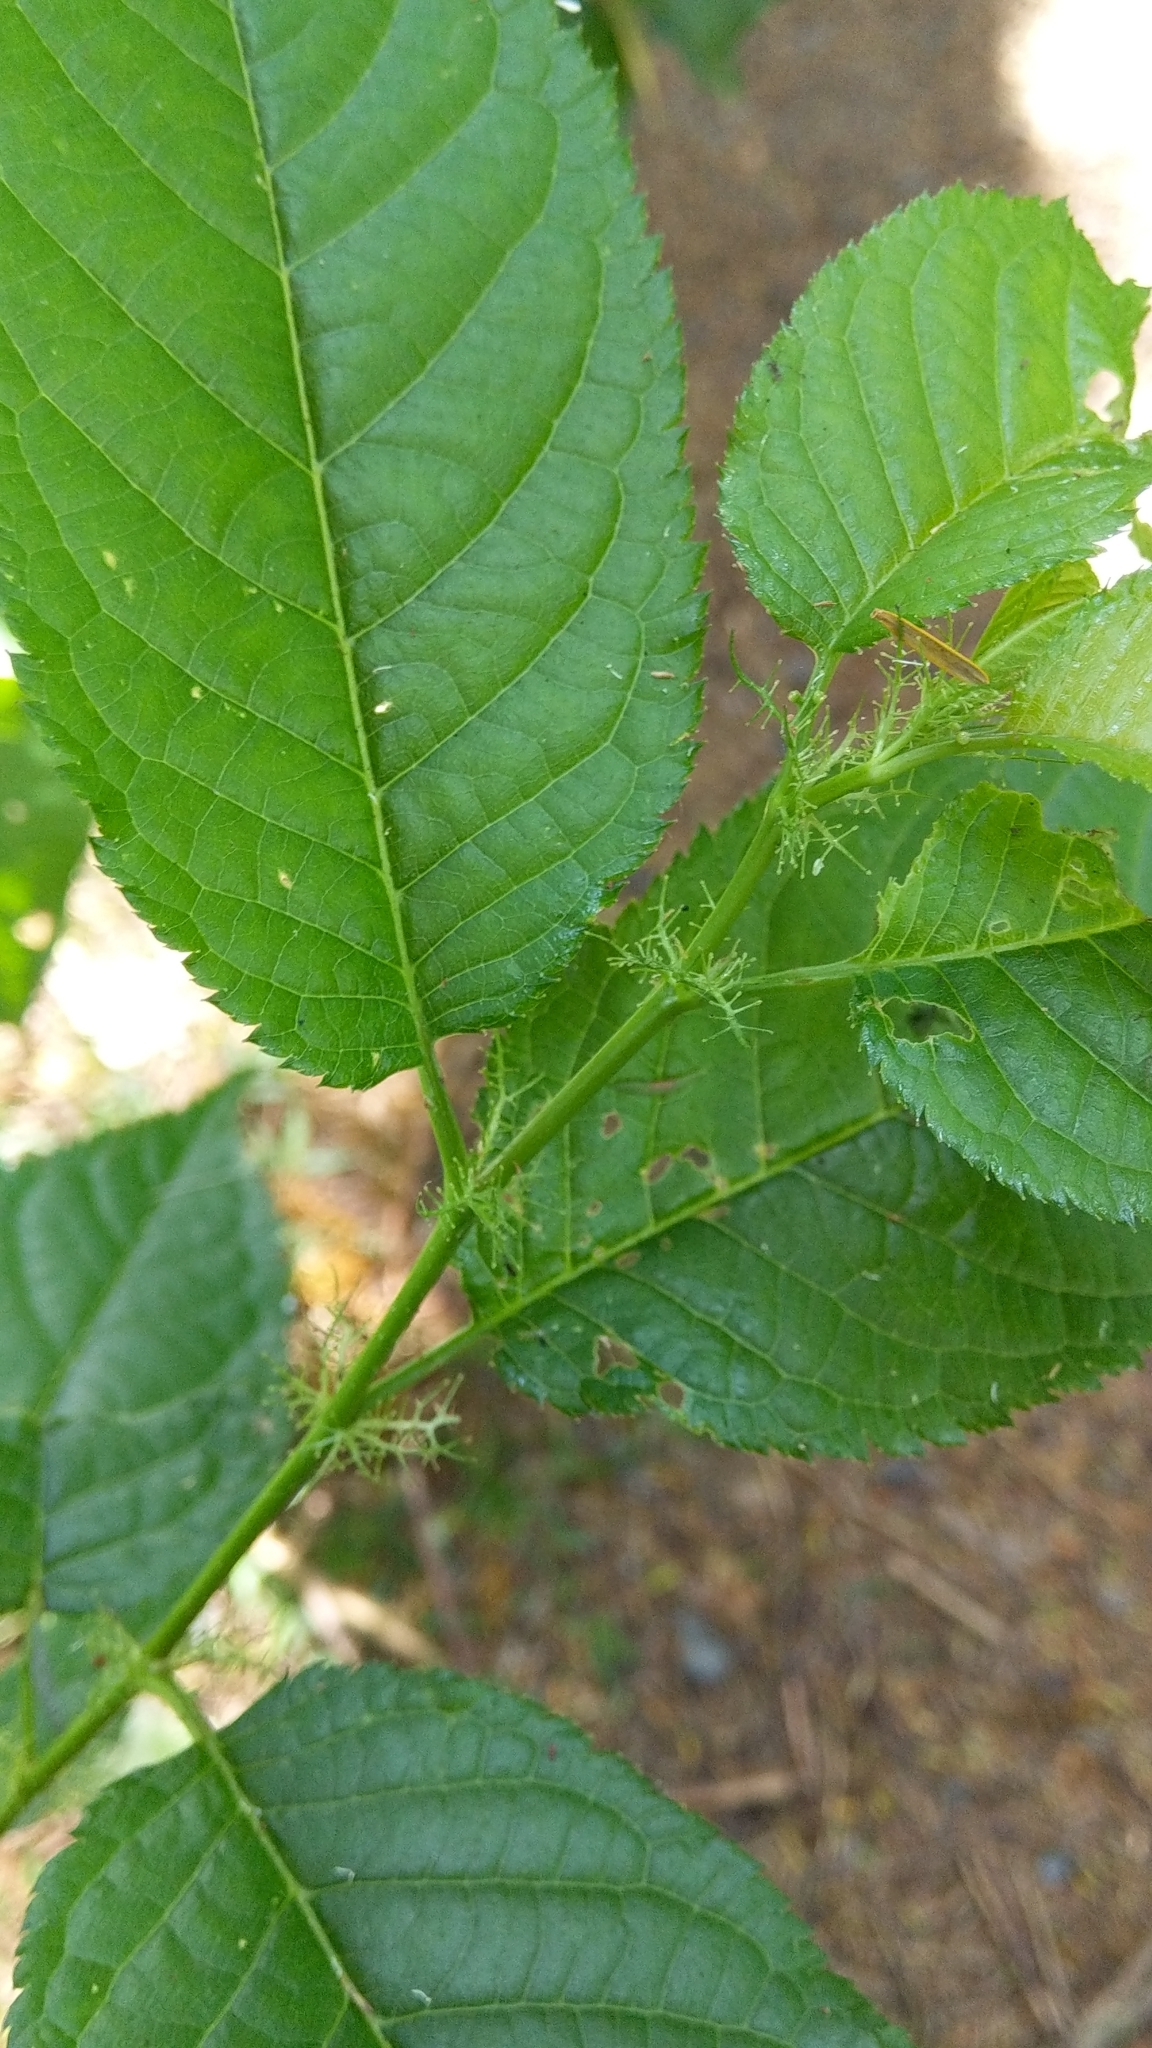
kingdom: Plantae
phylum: Tracheophyta
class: Magnoliopsida
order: Rosales
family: Rosaceae
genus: Prunus
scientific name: Prunus avium
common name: Sweet cherry
